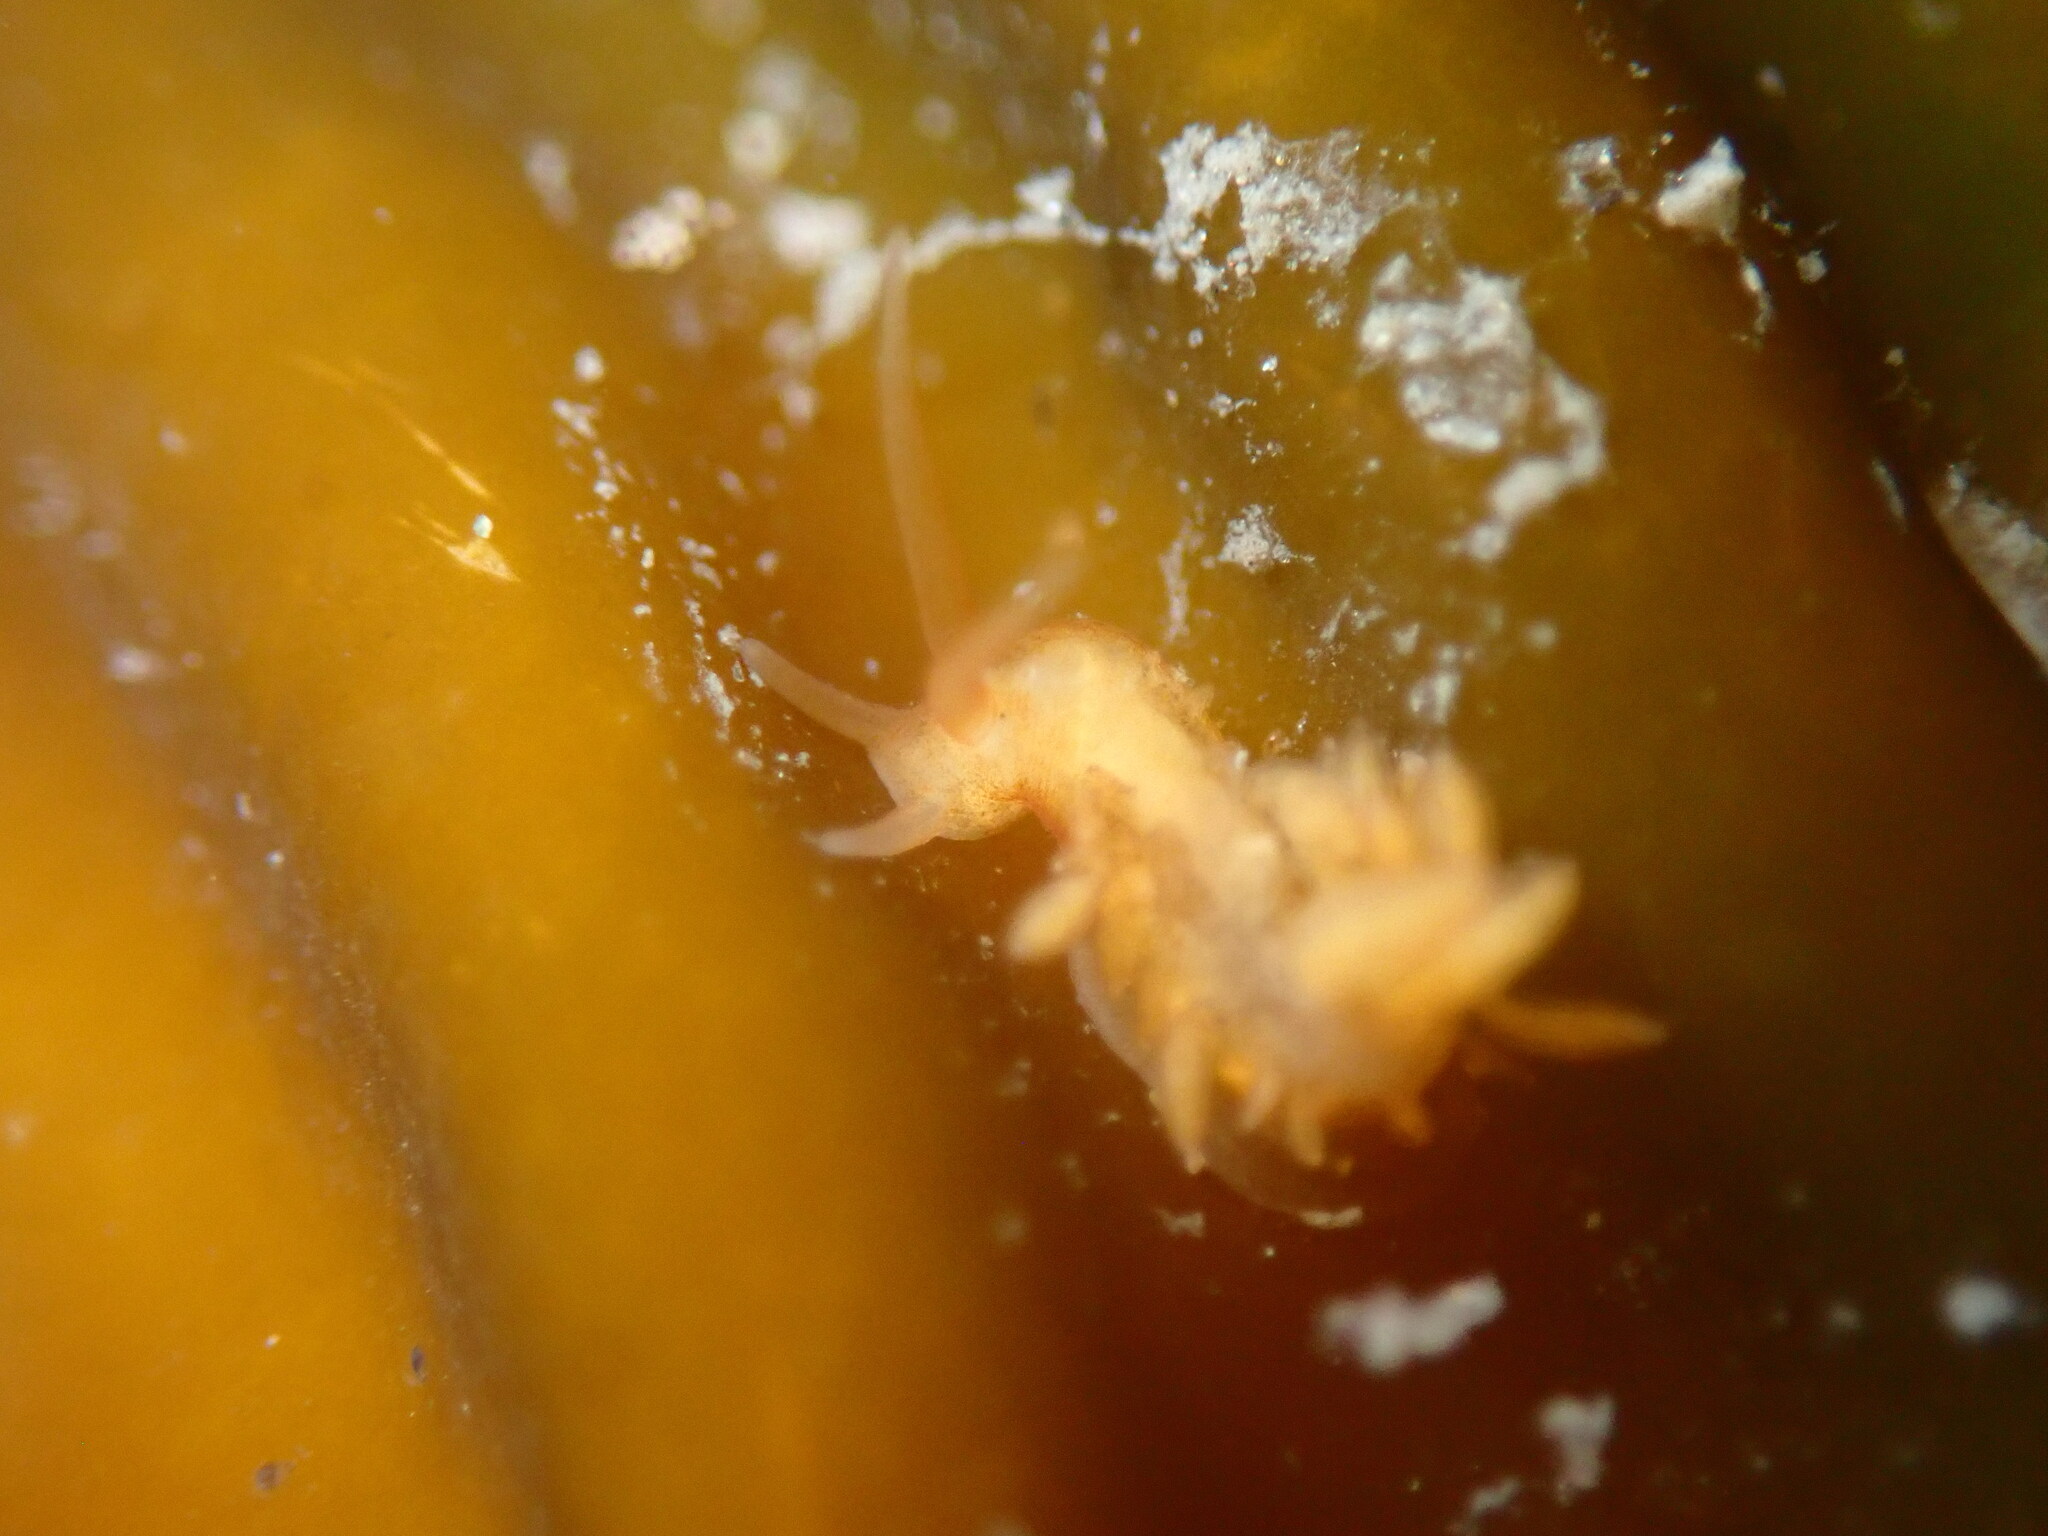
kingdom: Animalia
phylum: Mollusca
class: Gastropoda
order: Nudibranchia
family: Cuthonidae
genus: Cuthona
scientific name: Cuthona phoenix
